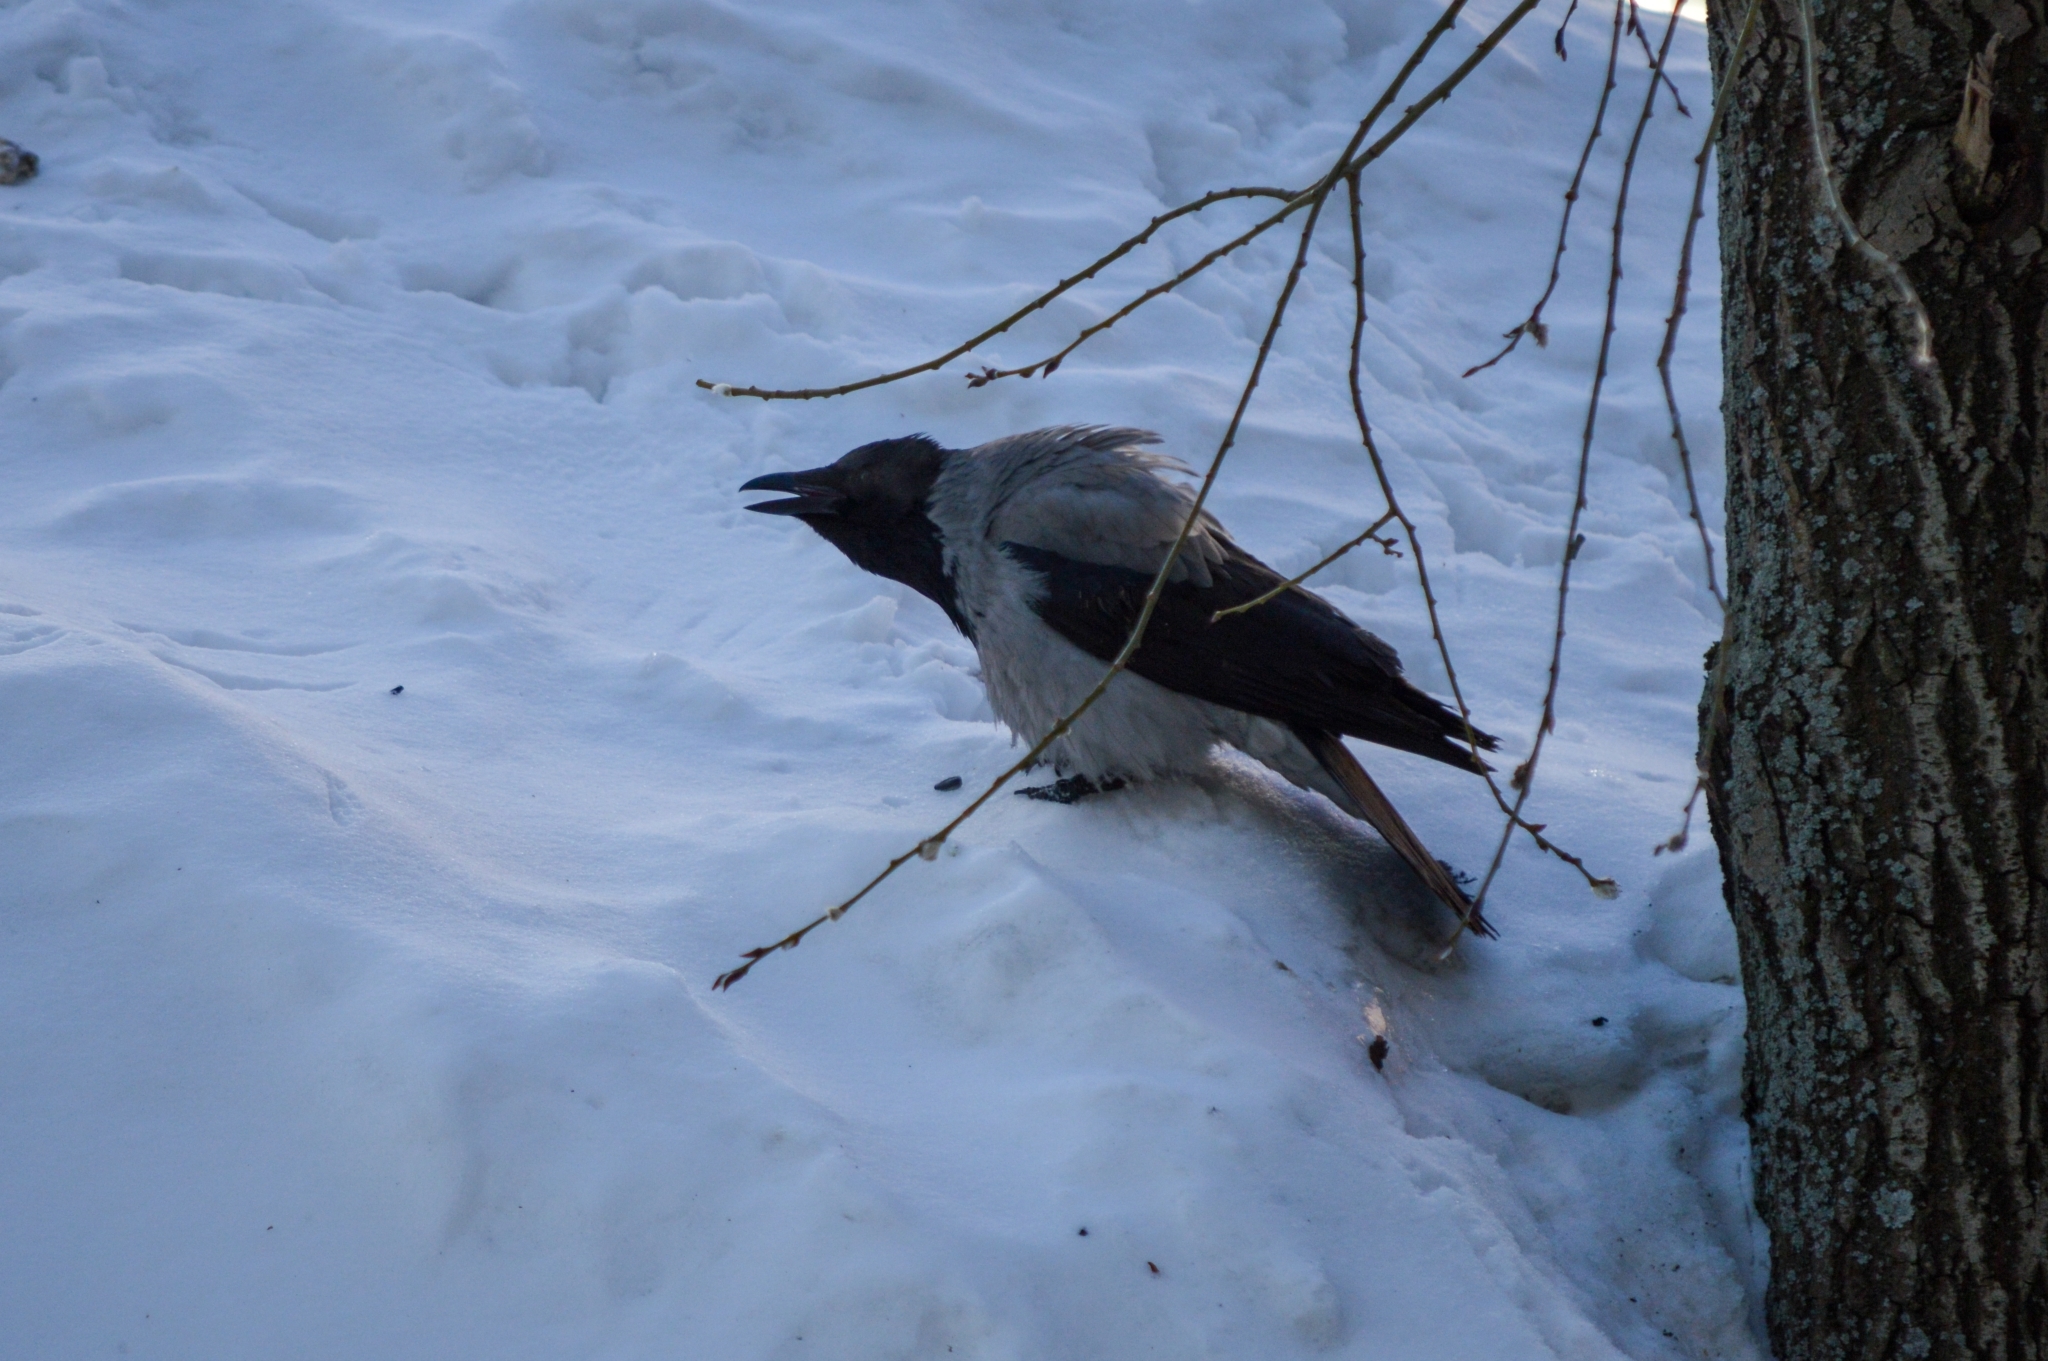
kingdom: Animalia
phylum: Chordata
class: Aves
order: Passeriformes
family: Corvidae
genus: Corvus
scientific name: Corvus cornix
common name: Hooded crow
